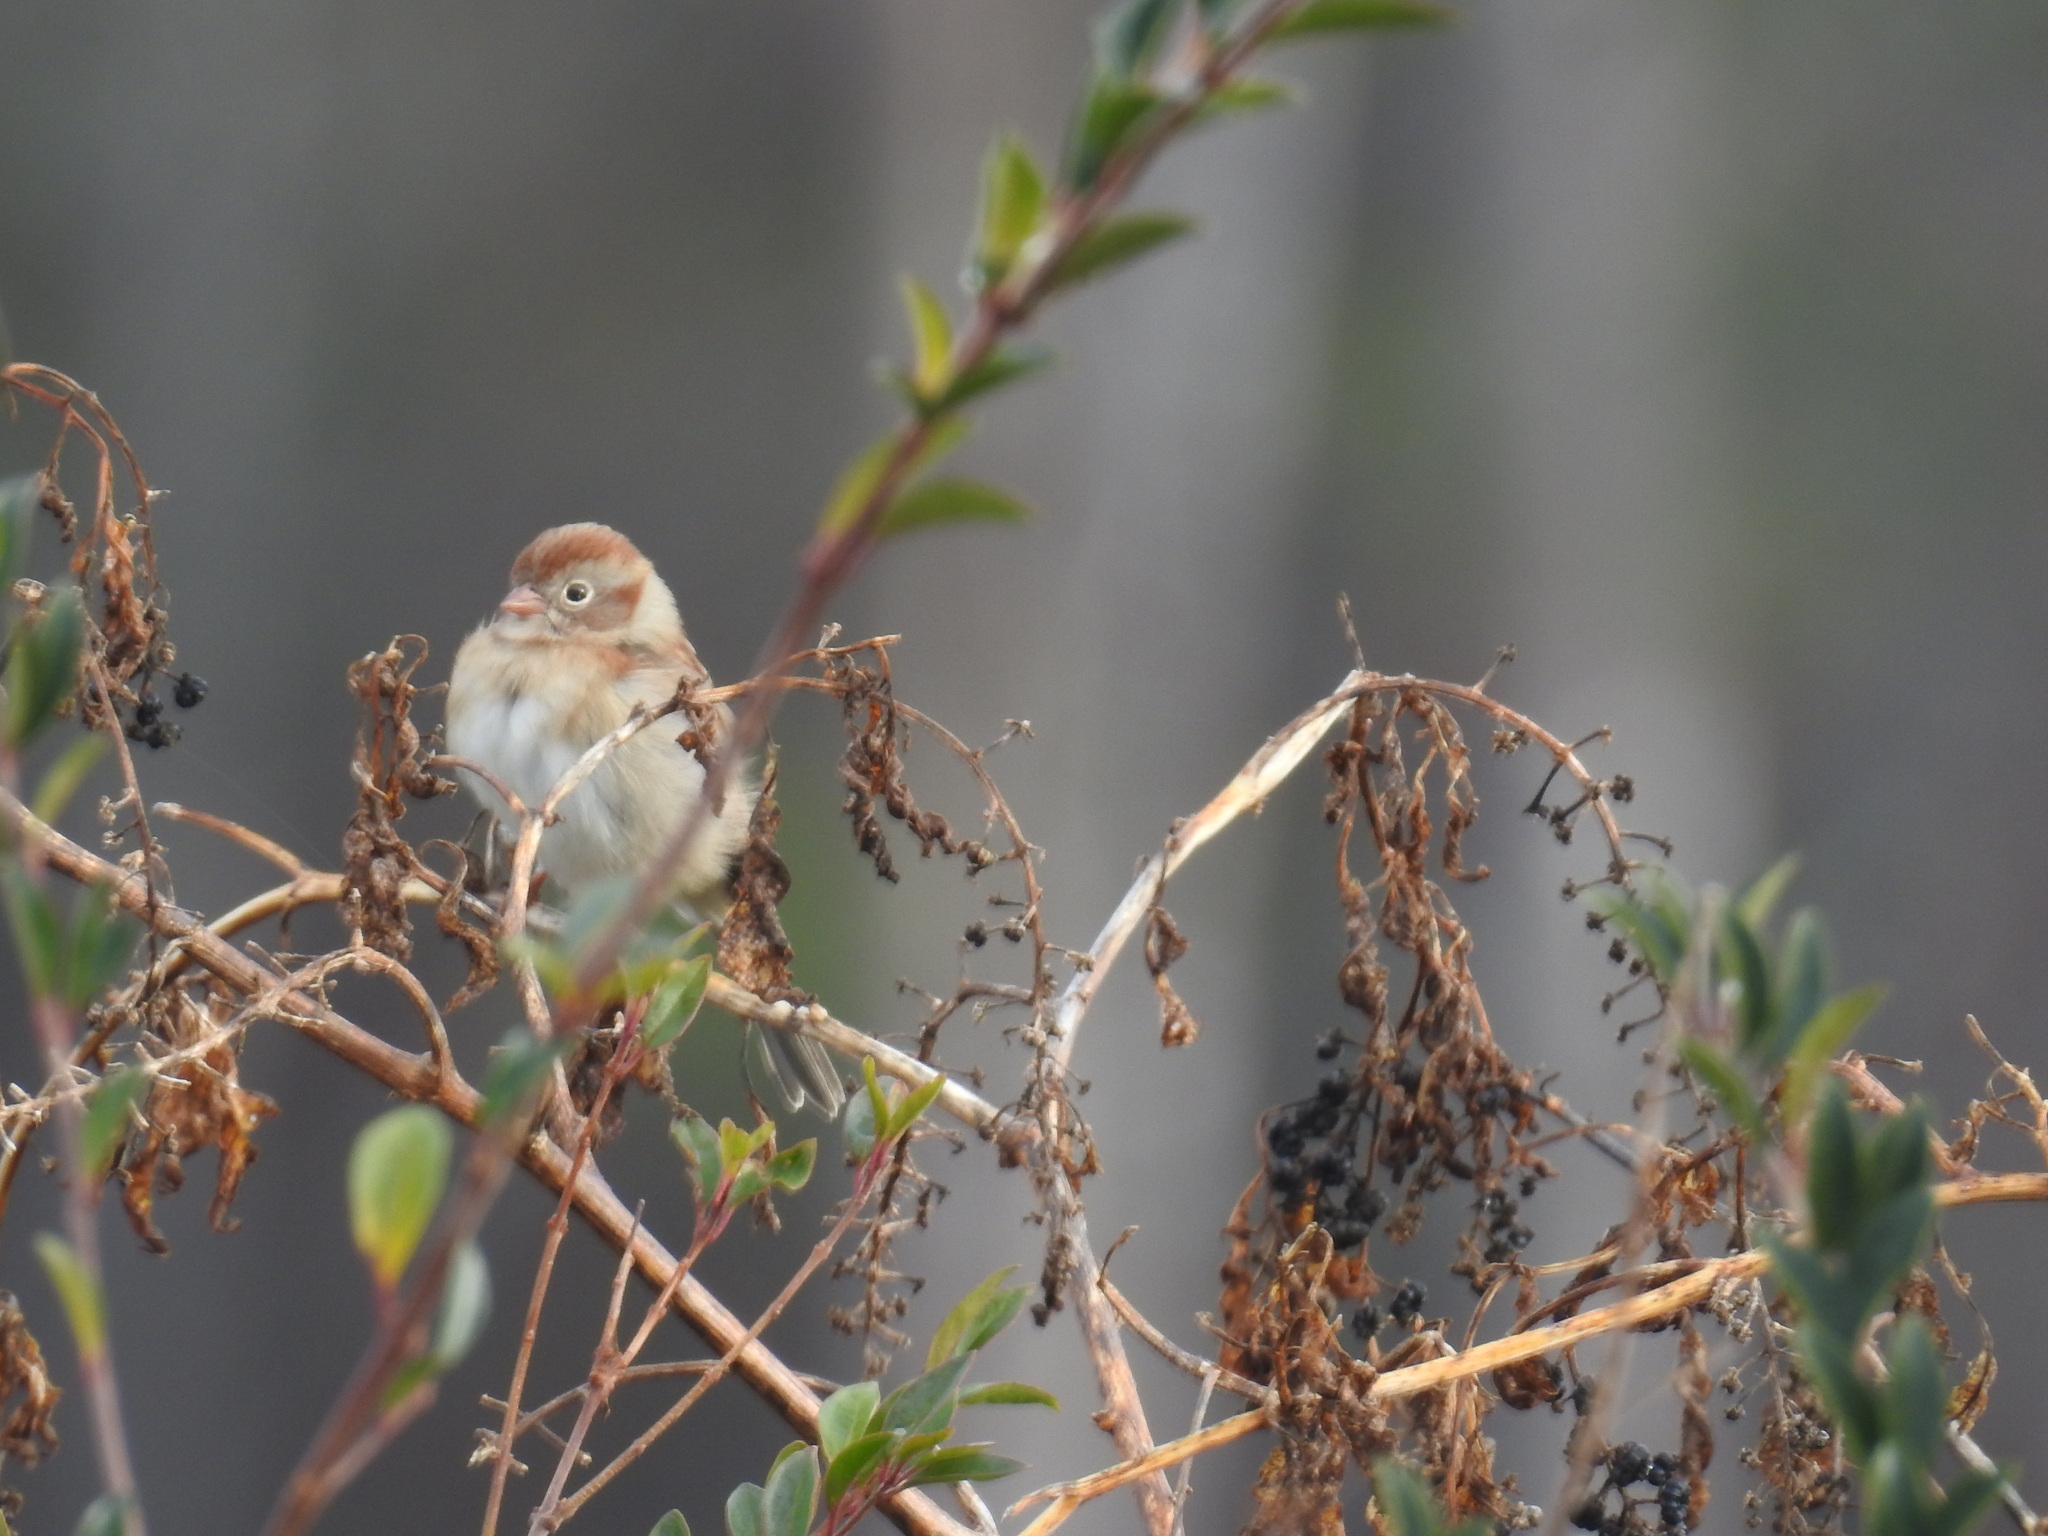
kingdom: Animalia
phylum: Chordata
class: Aves
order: Passeriformes
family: Passerellidae
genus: Spizella
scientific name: Spizella pusilla
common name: Field sparrow
